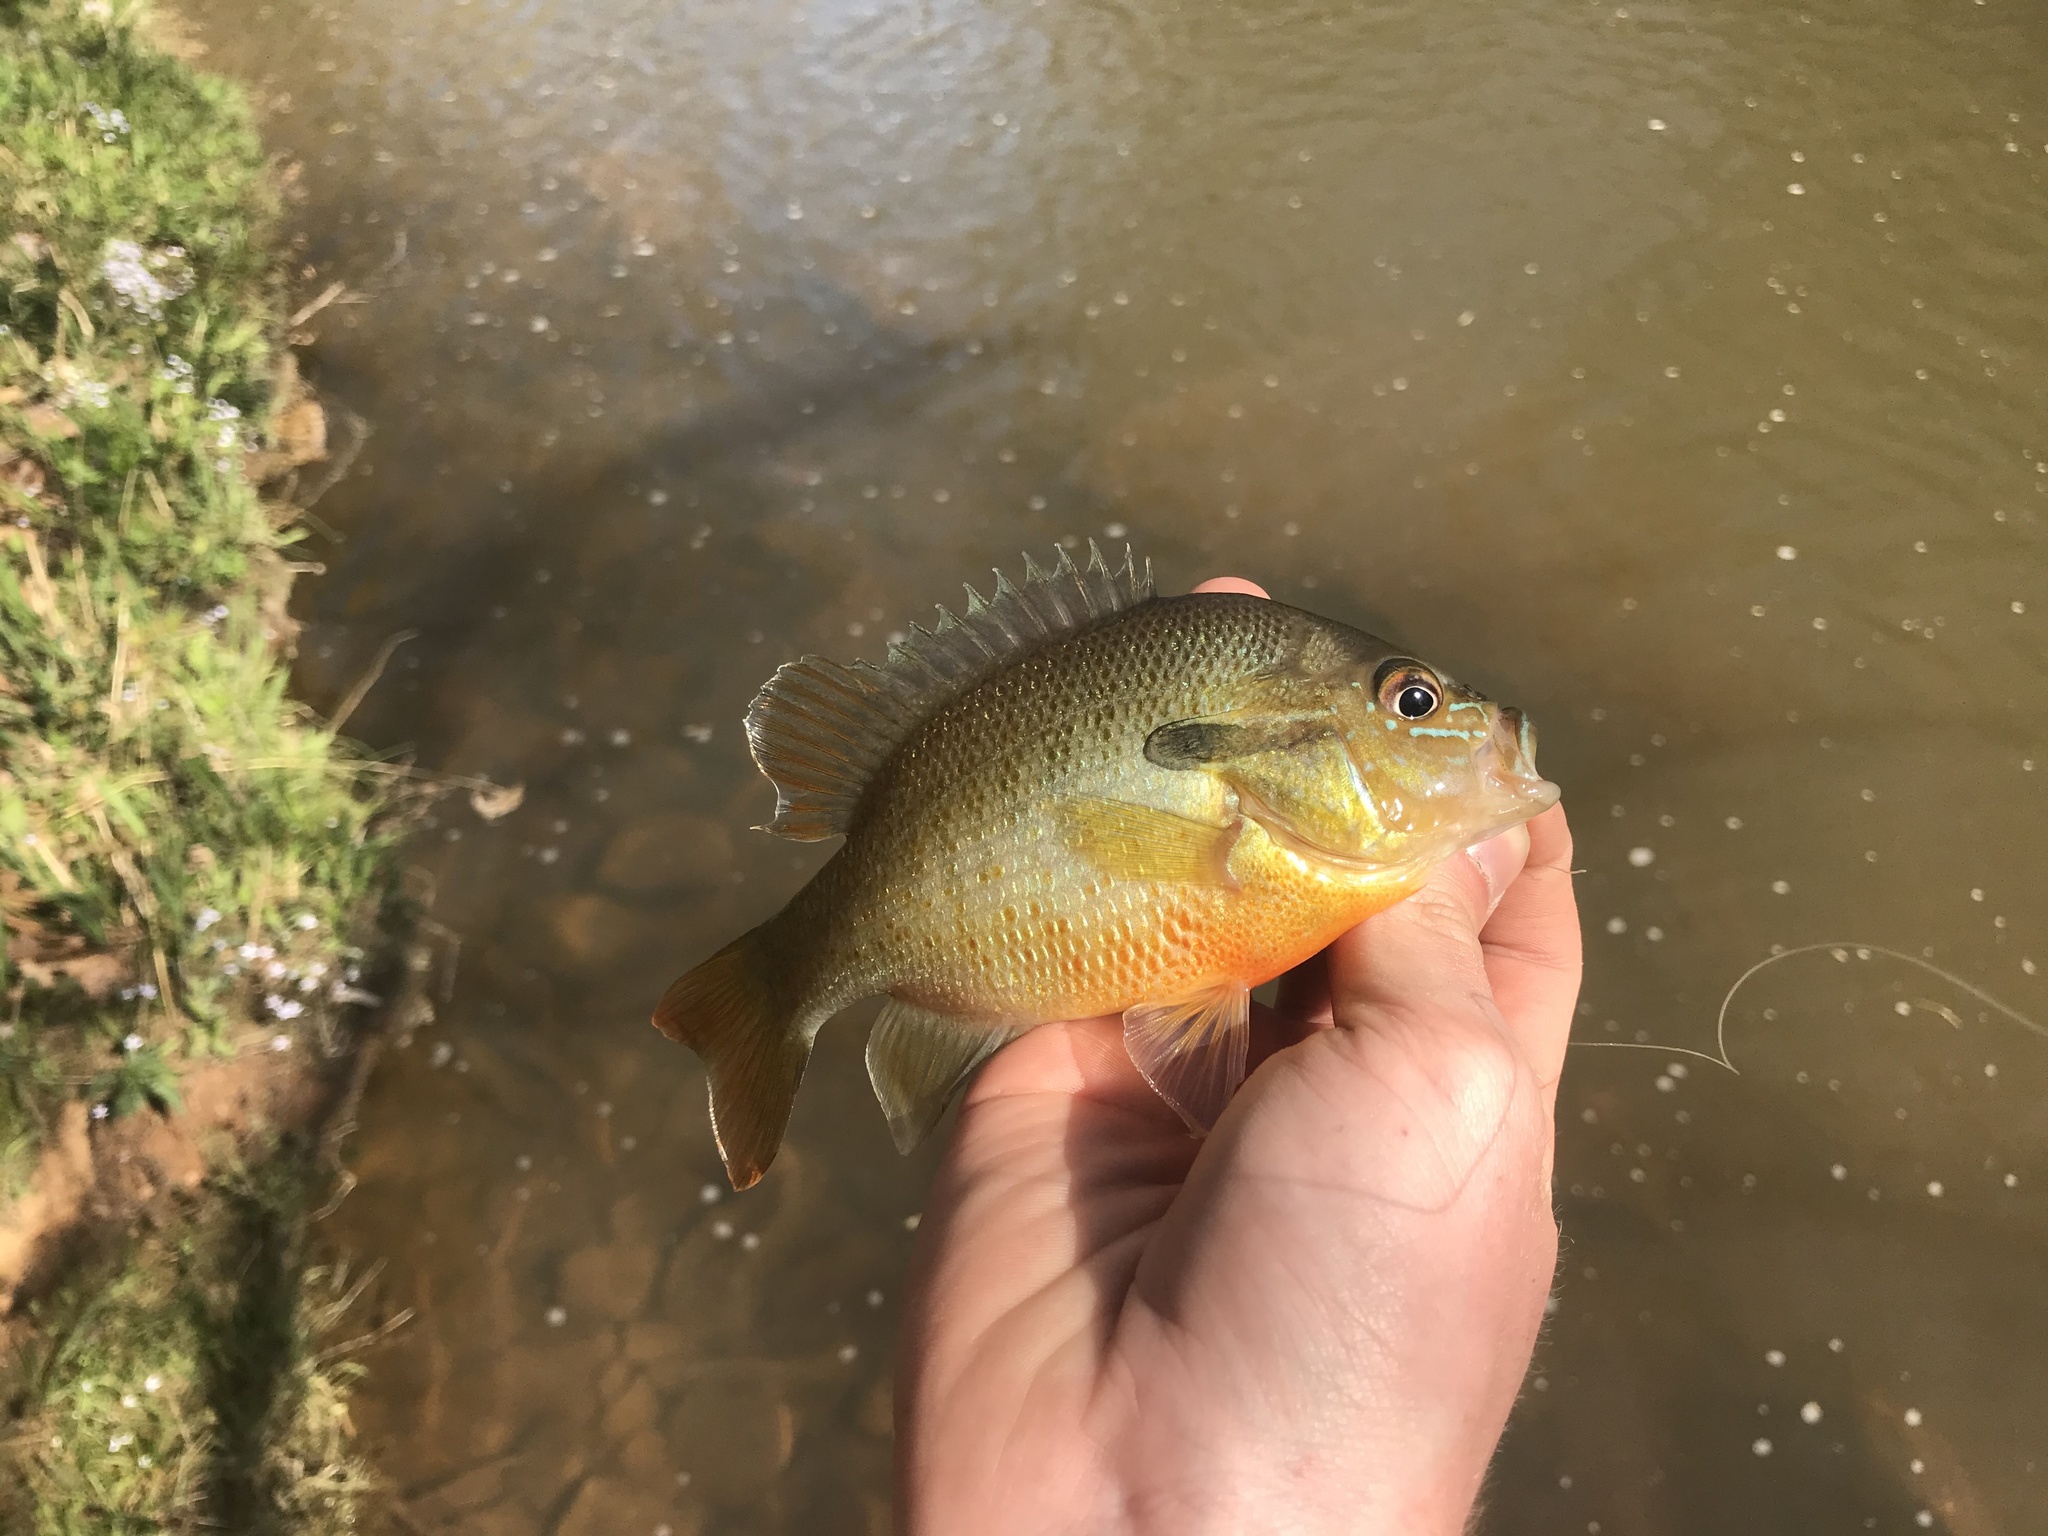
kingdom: Animalia
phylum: Chordata
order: Perciformes
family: Centrarchidae
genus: Lepomis
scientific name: Lepomis auritus
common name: Redbreast sunfish
